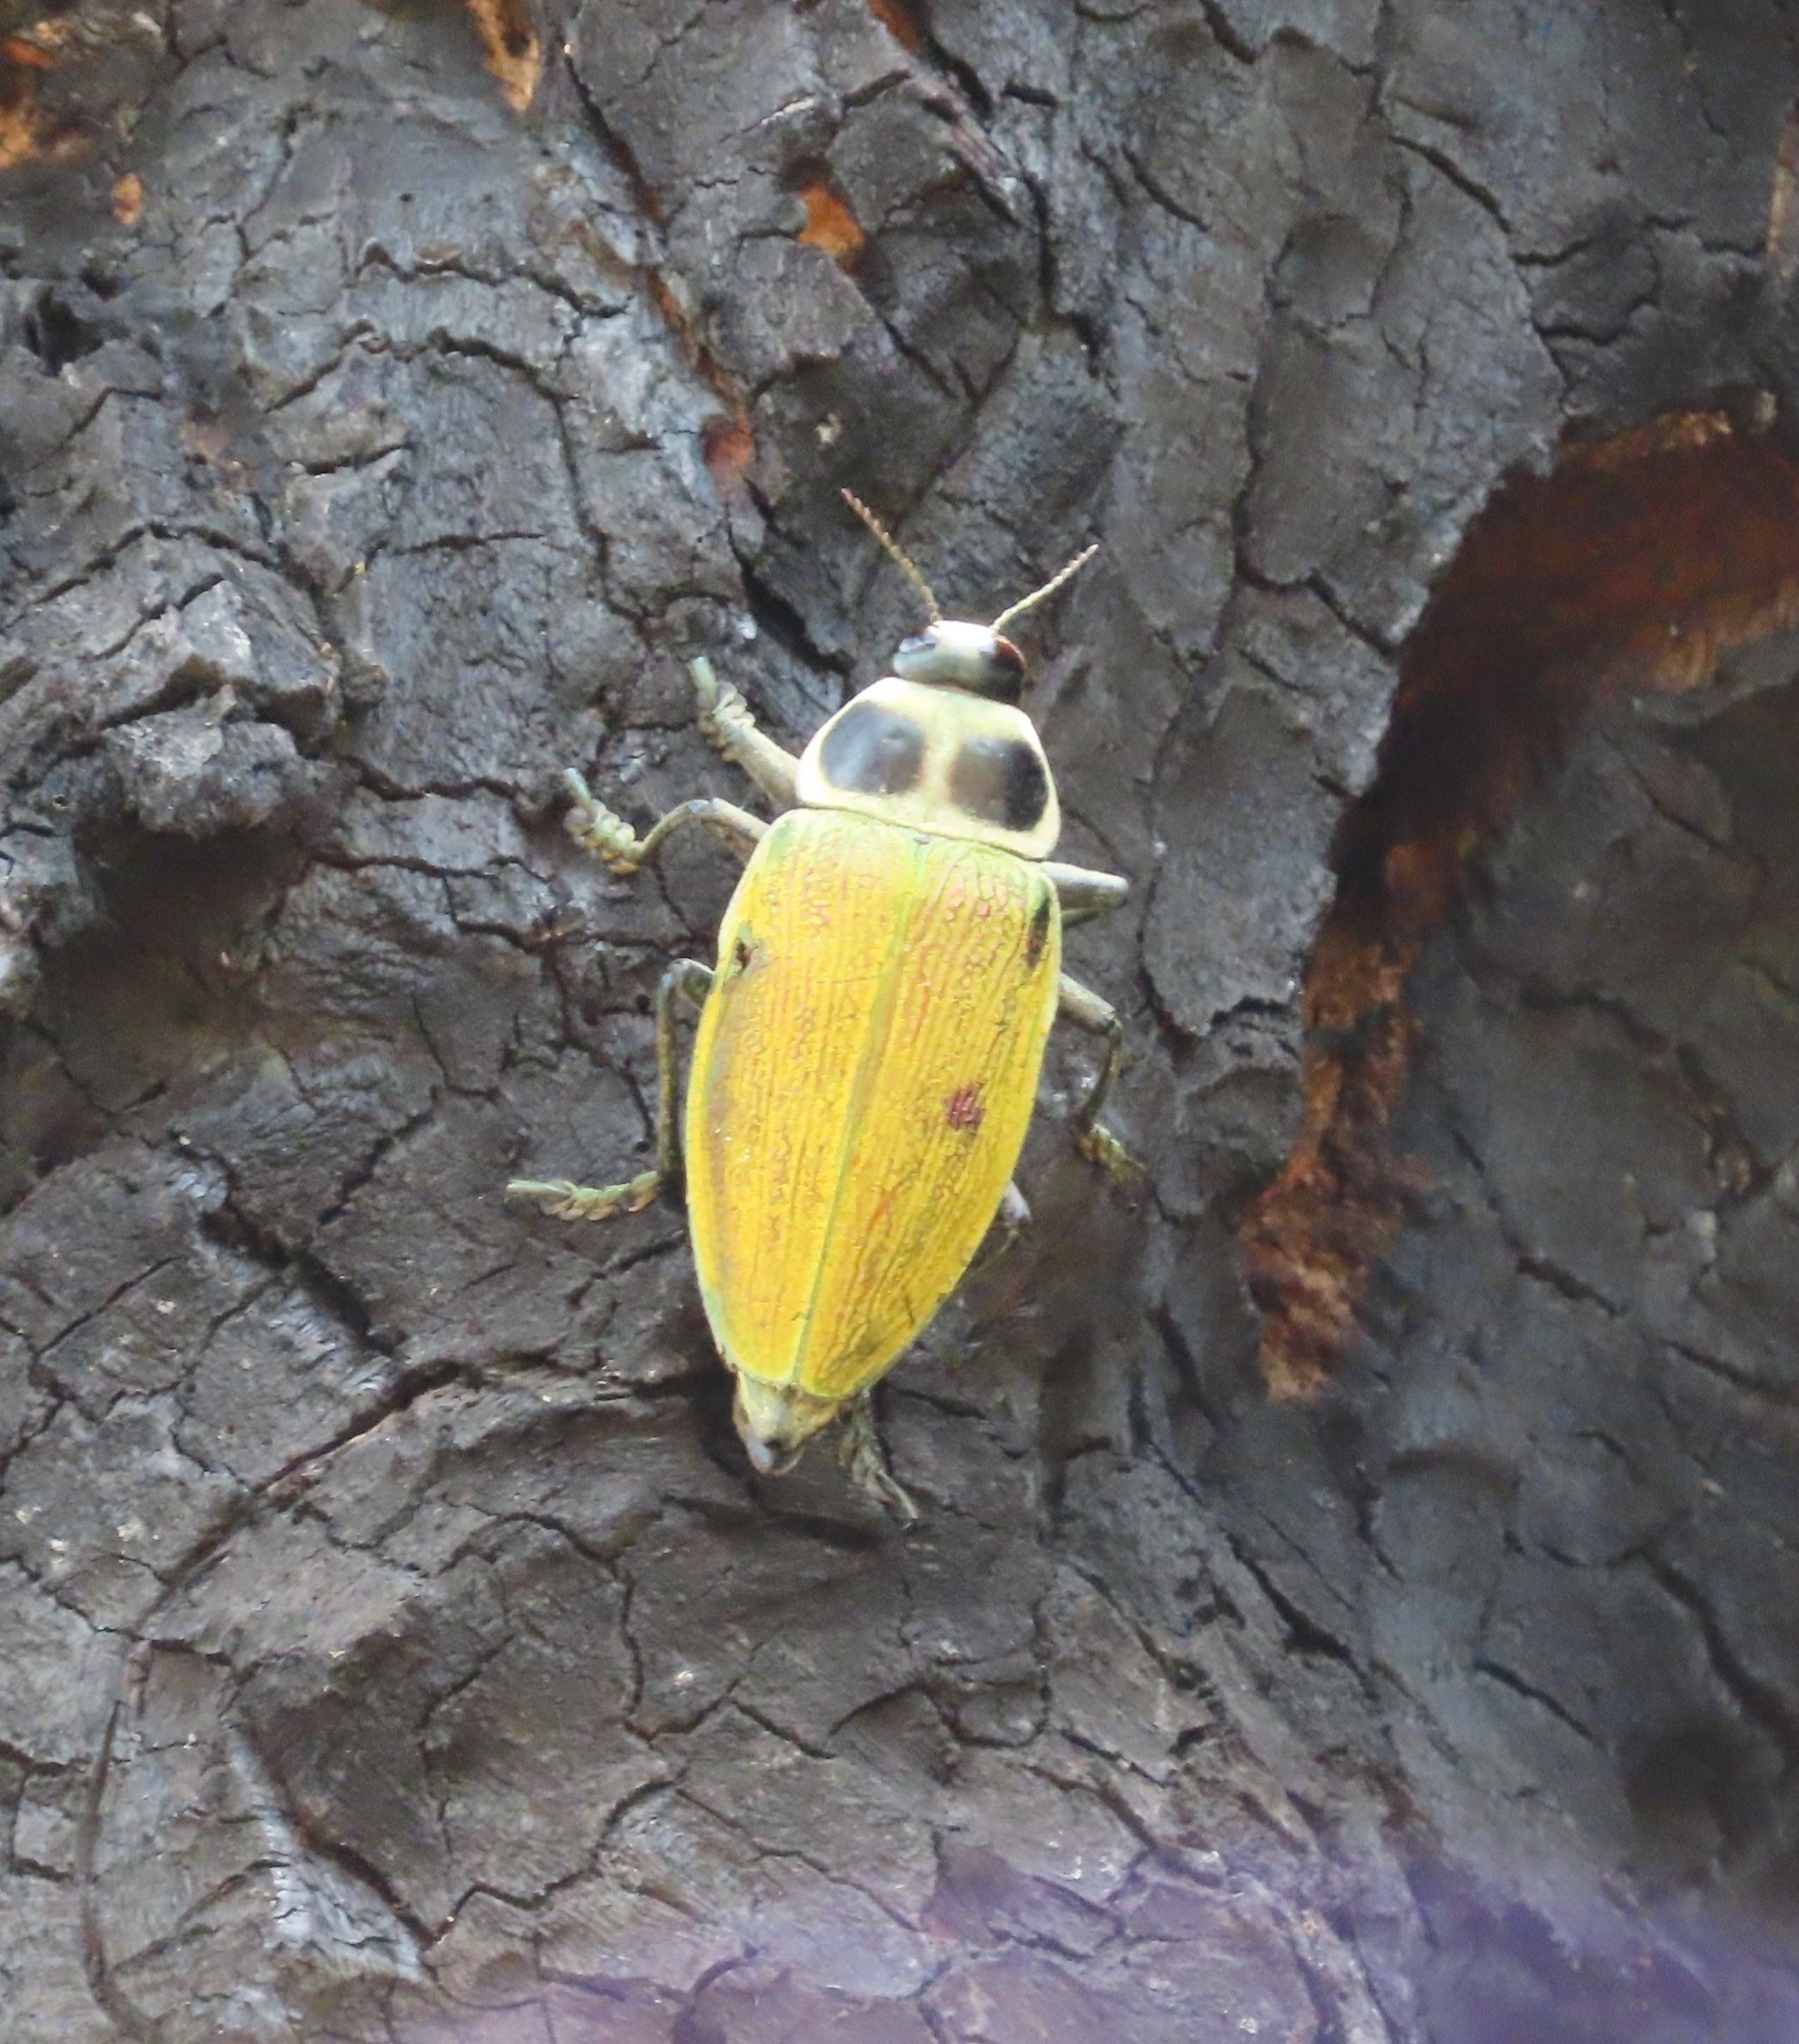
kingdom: Animalia
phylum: Arthropoda
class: Insecta
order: Coleoptera
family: Buprestidae
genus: Euchroma
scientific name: Euchroma giganteum
